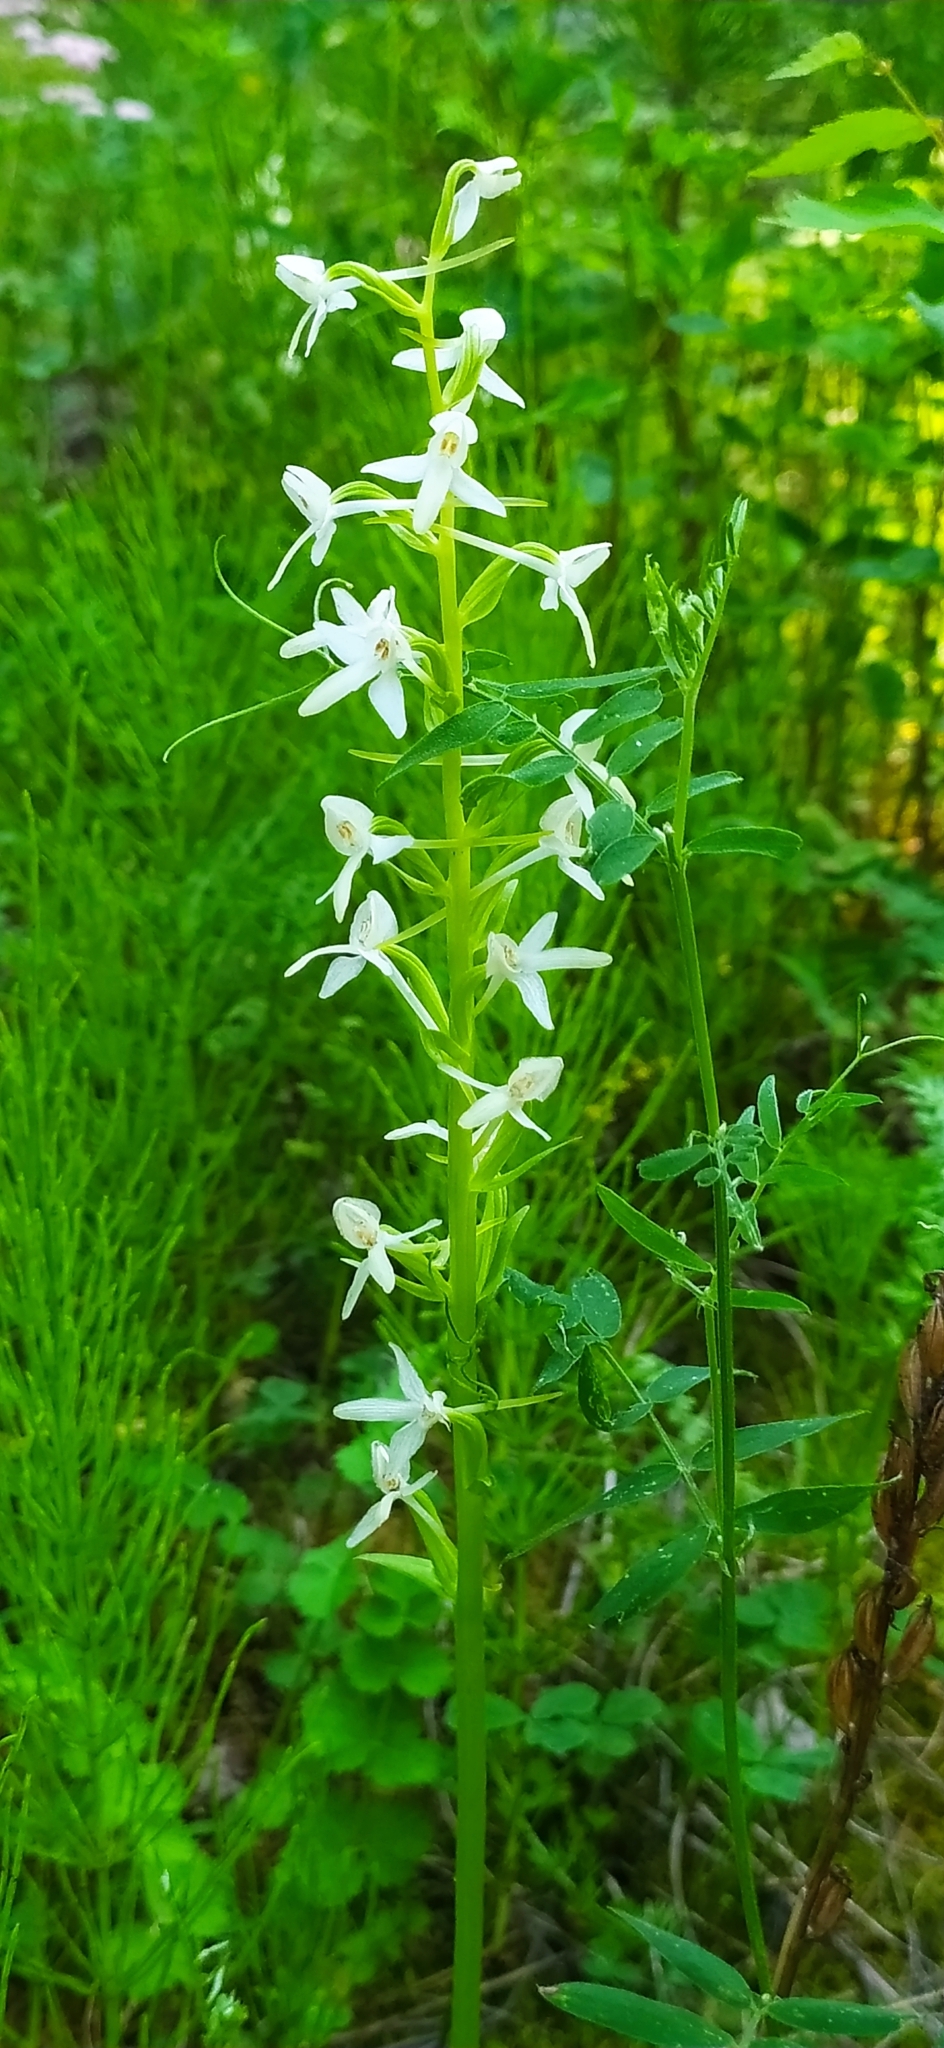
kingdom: Plantae
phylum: Tracheophyta
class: Liliopsida
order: Asparagales
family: Orchidaceae
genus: Platanthera
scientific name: Platanthera bifolia
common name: Lesser butterfly-orchid
